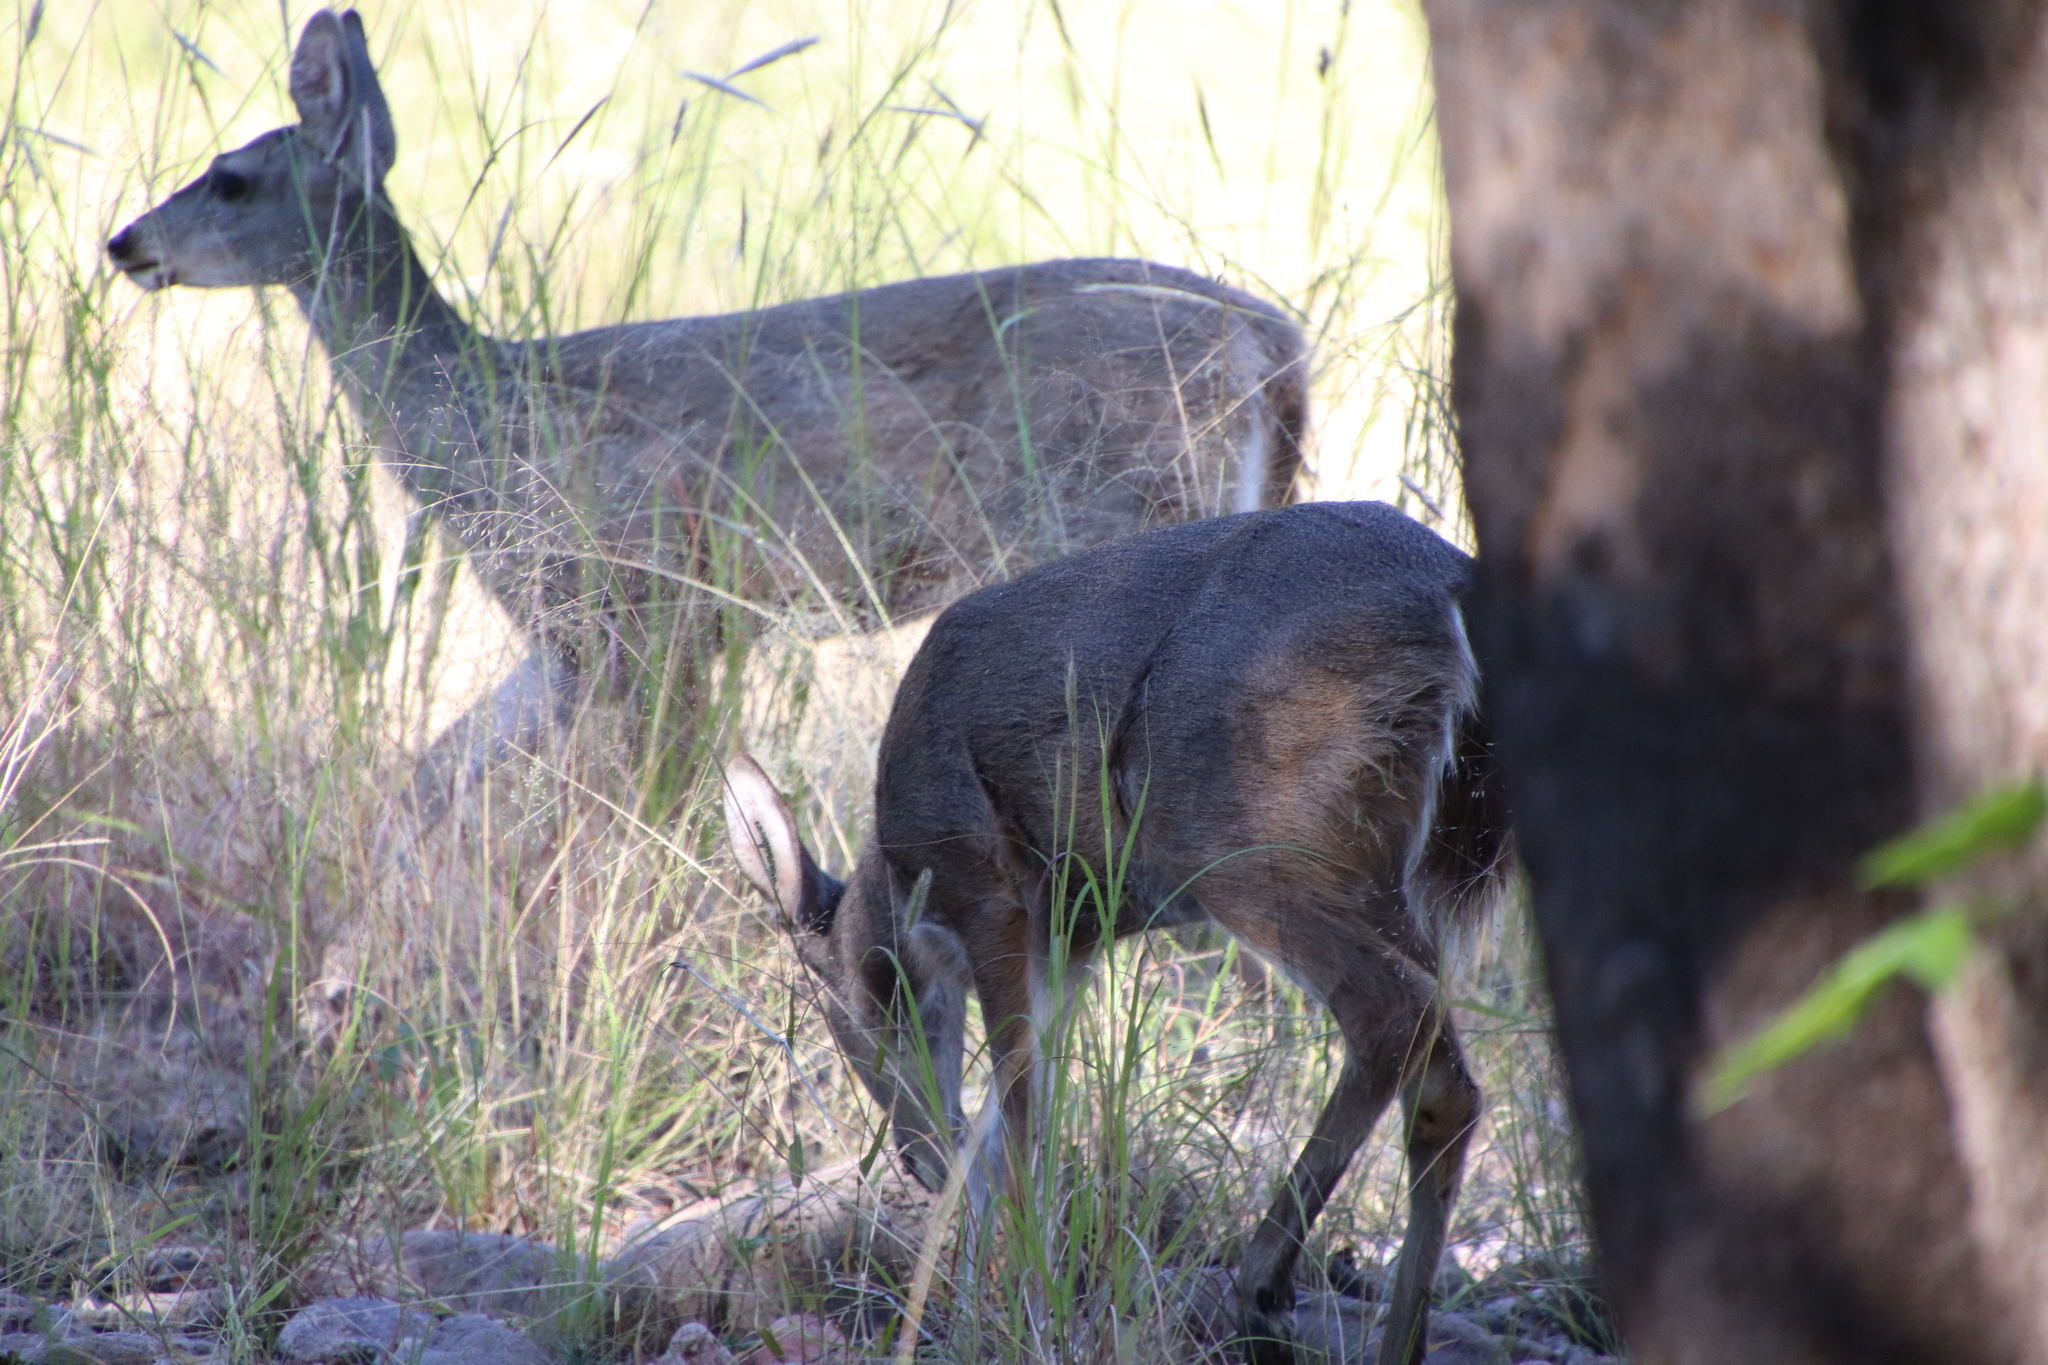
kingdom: Animalia
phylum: Chordata
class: Mammalia
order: Artiodactyla
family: Cervidae
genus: Odocoileus
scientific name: Odocoileus virginianus
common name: White-tailed deer
